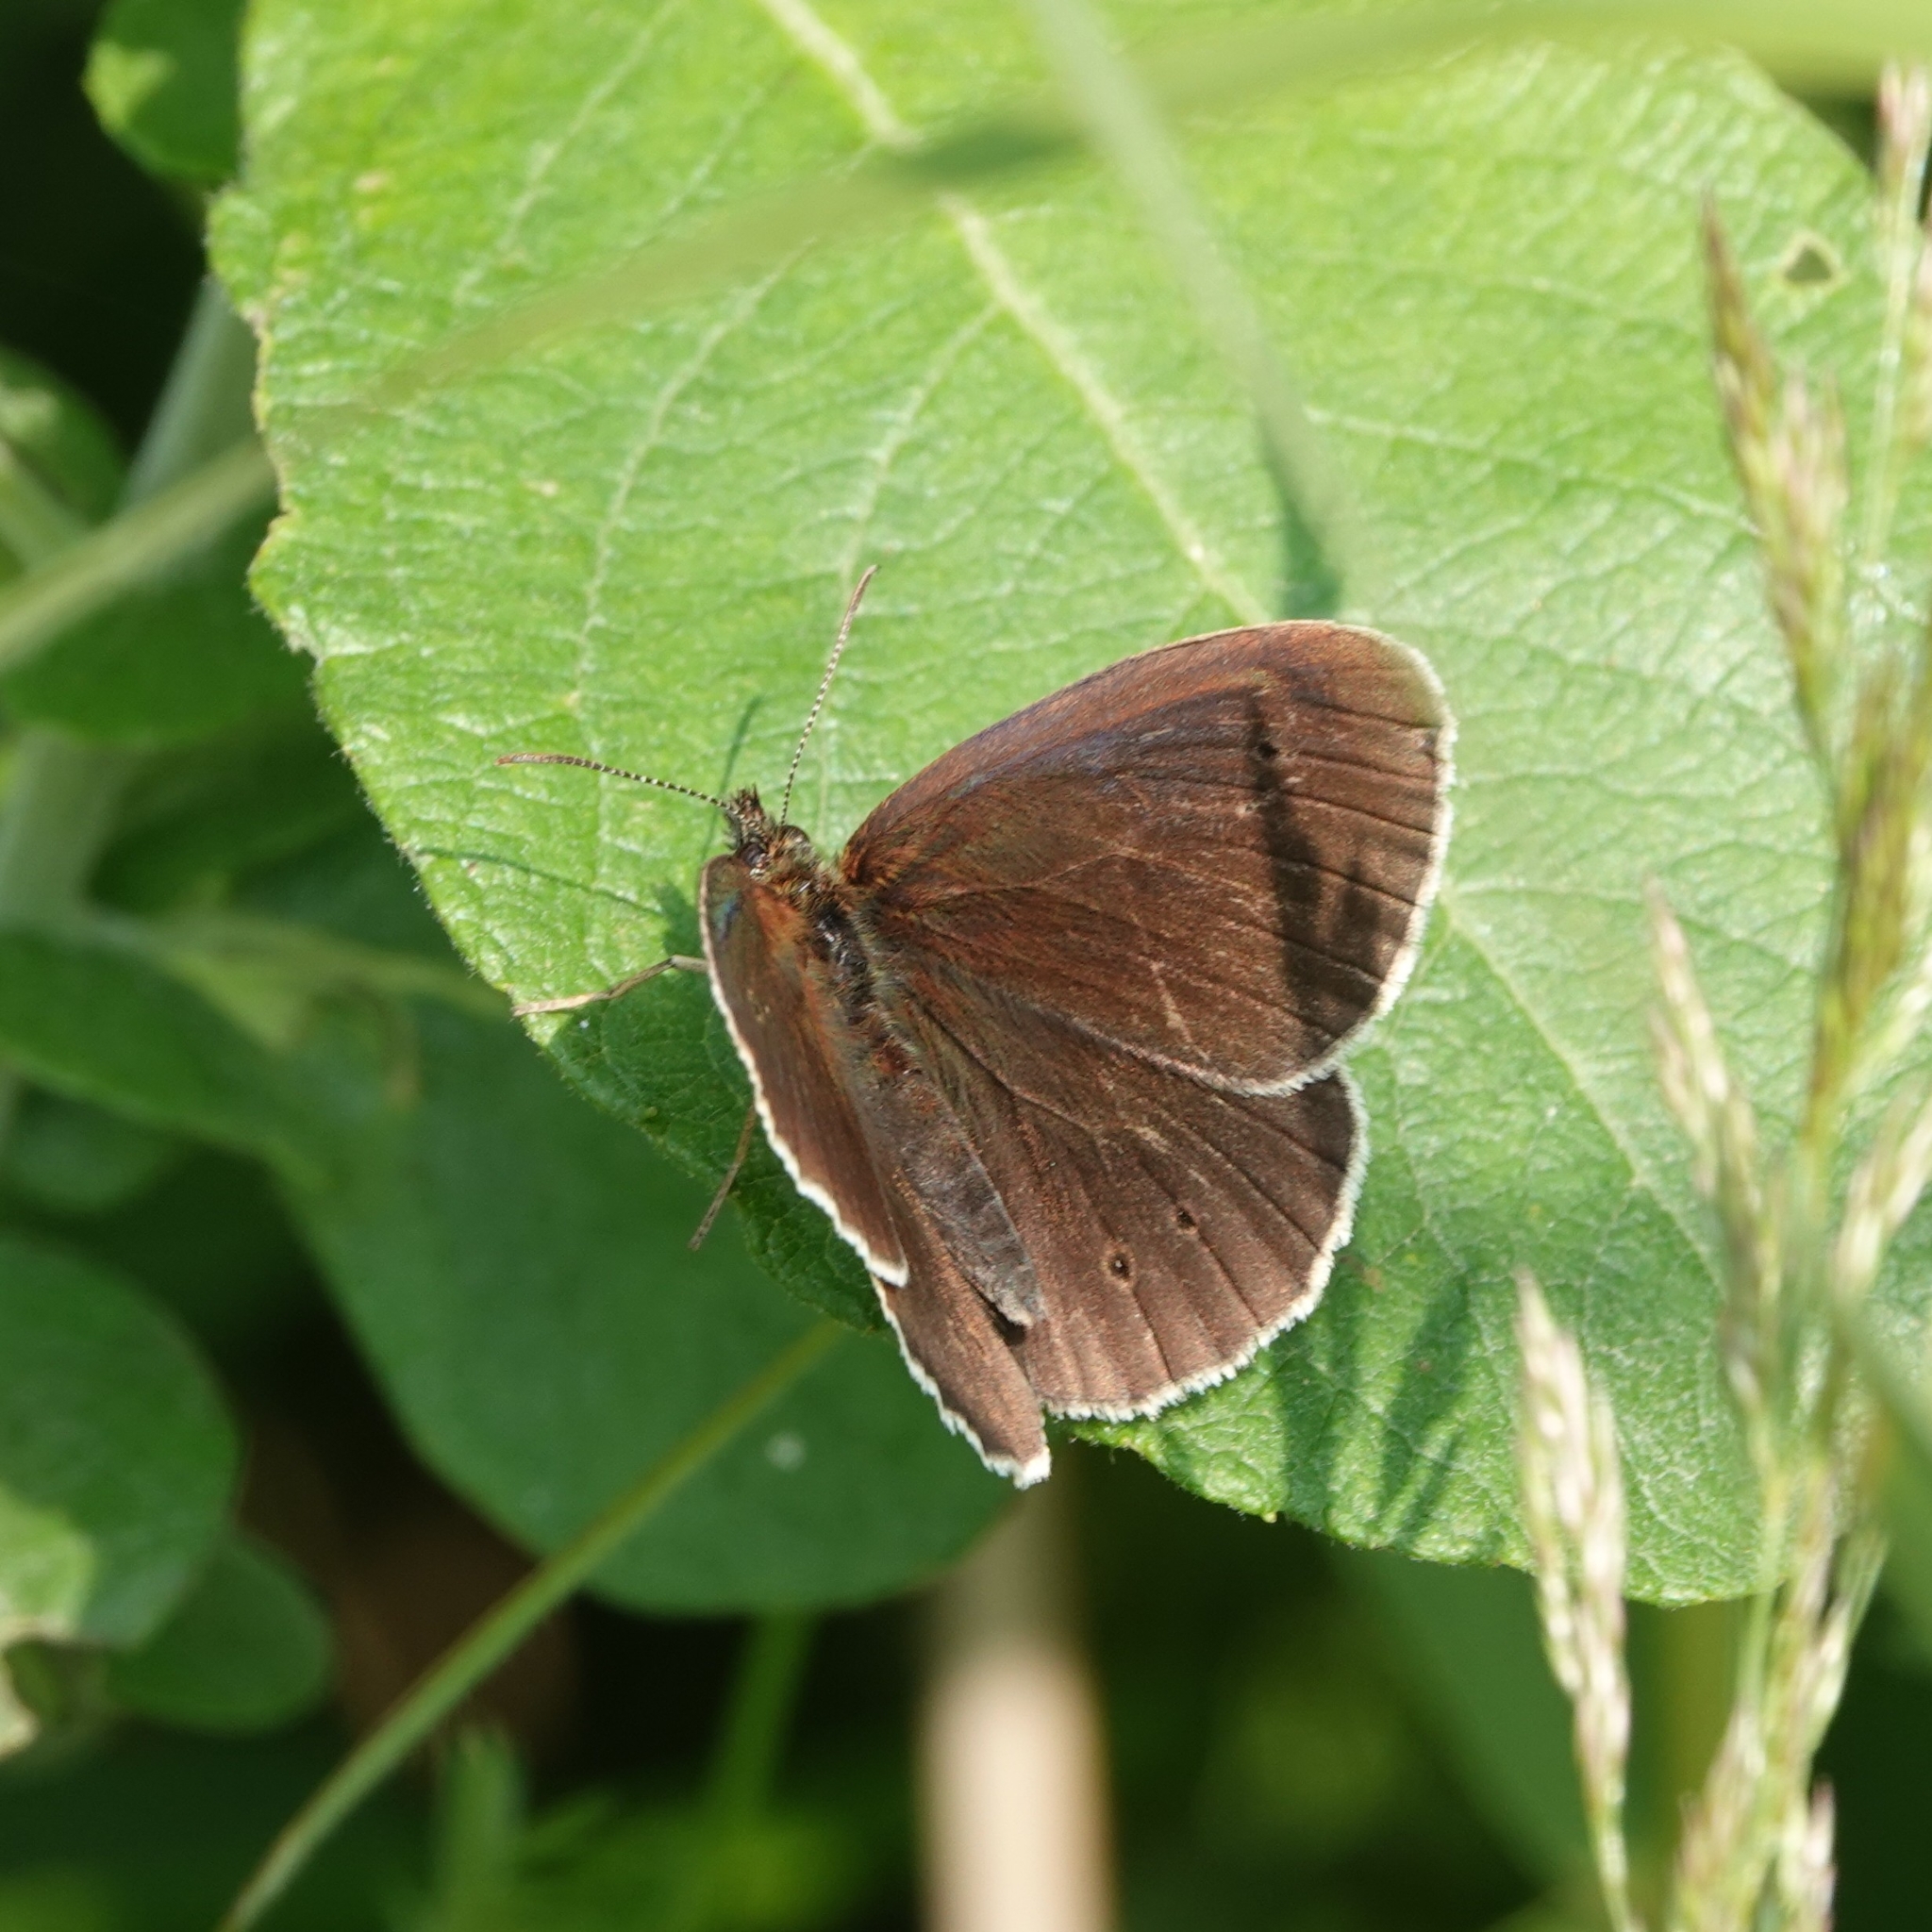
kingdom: Animalia
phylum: Arthropoda
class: Insecta
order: Lepidoptera
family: Nymphalidae
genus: Aphantopus
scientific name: Aphantopus hyperantus
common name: Ringlet
